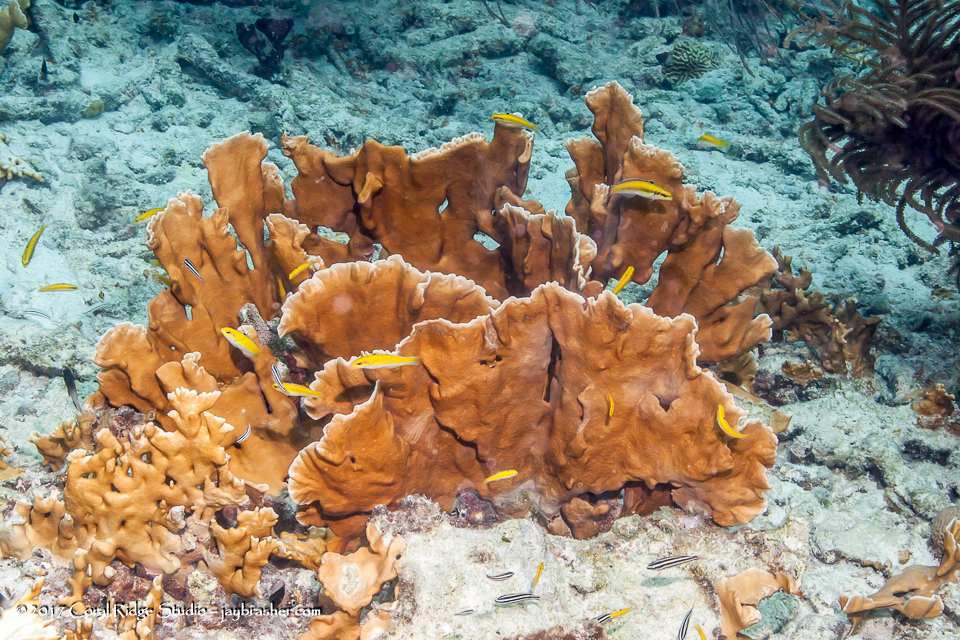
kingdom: Animalia
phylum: Cnidaria
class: Hydrozoa
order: Anthoathecata
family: Milleporidae
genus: Millepora
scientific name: Millepora complanata
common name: Bladed fire coral
